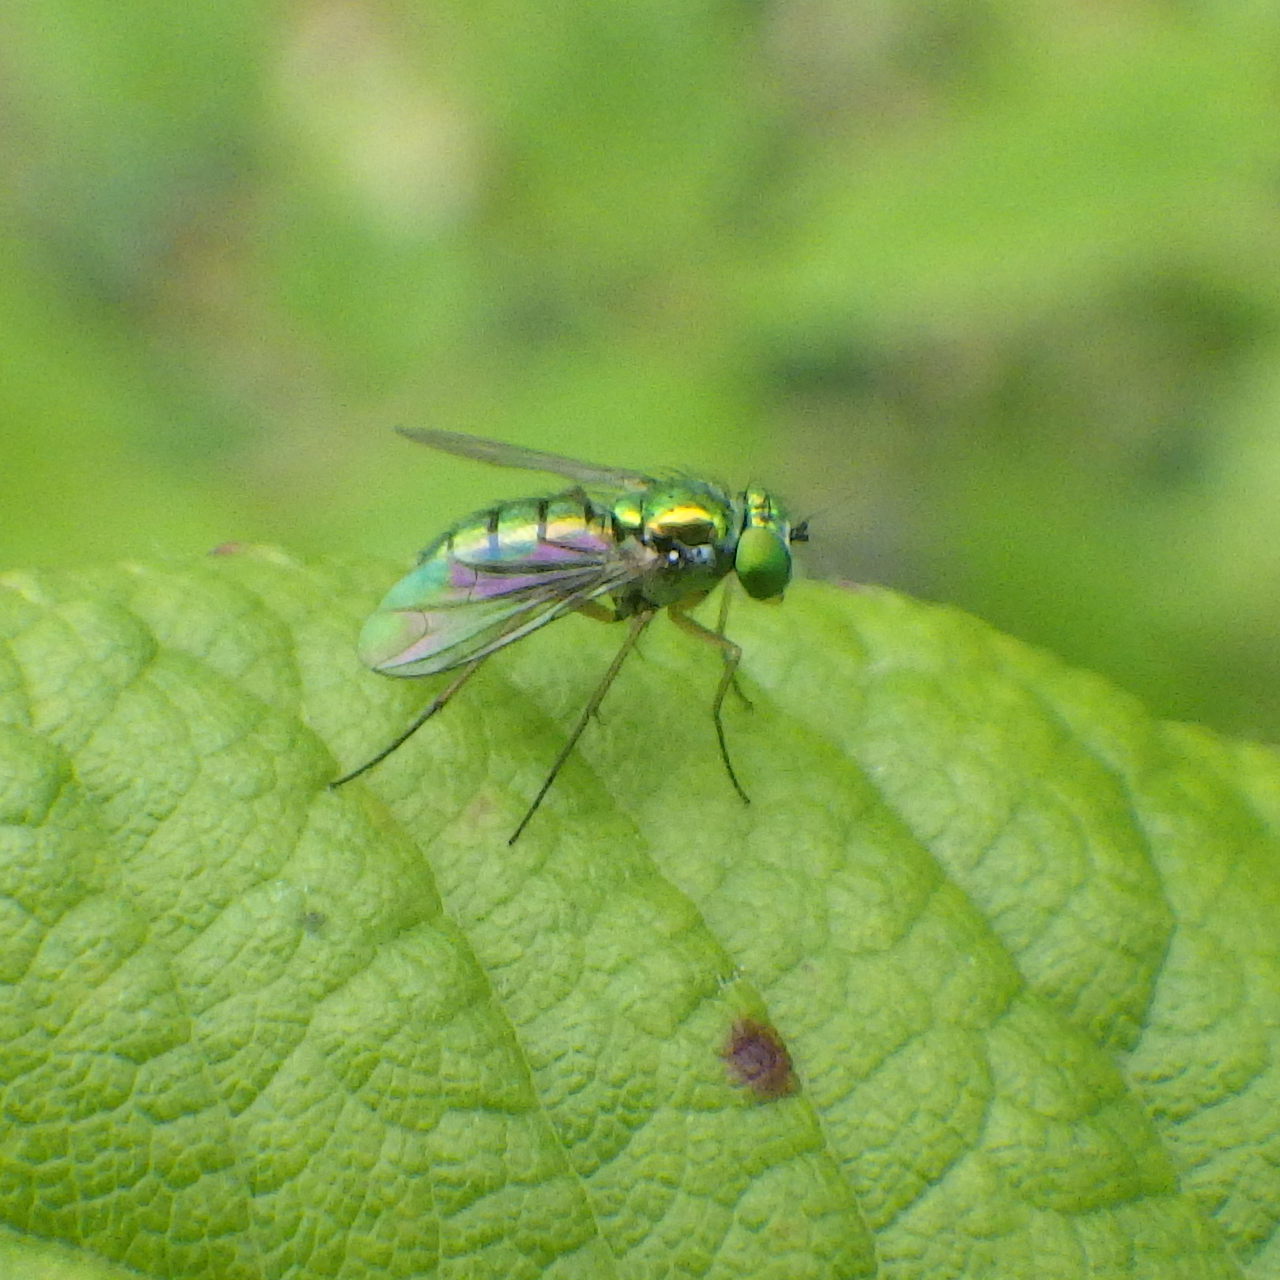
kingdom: Animalia
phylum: Arthropoda
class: Insecta
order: Diptera
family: Dolichopodidae
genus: Condylostylus
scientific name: Condylostylus
